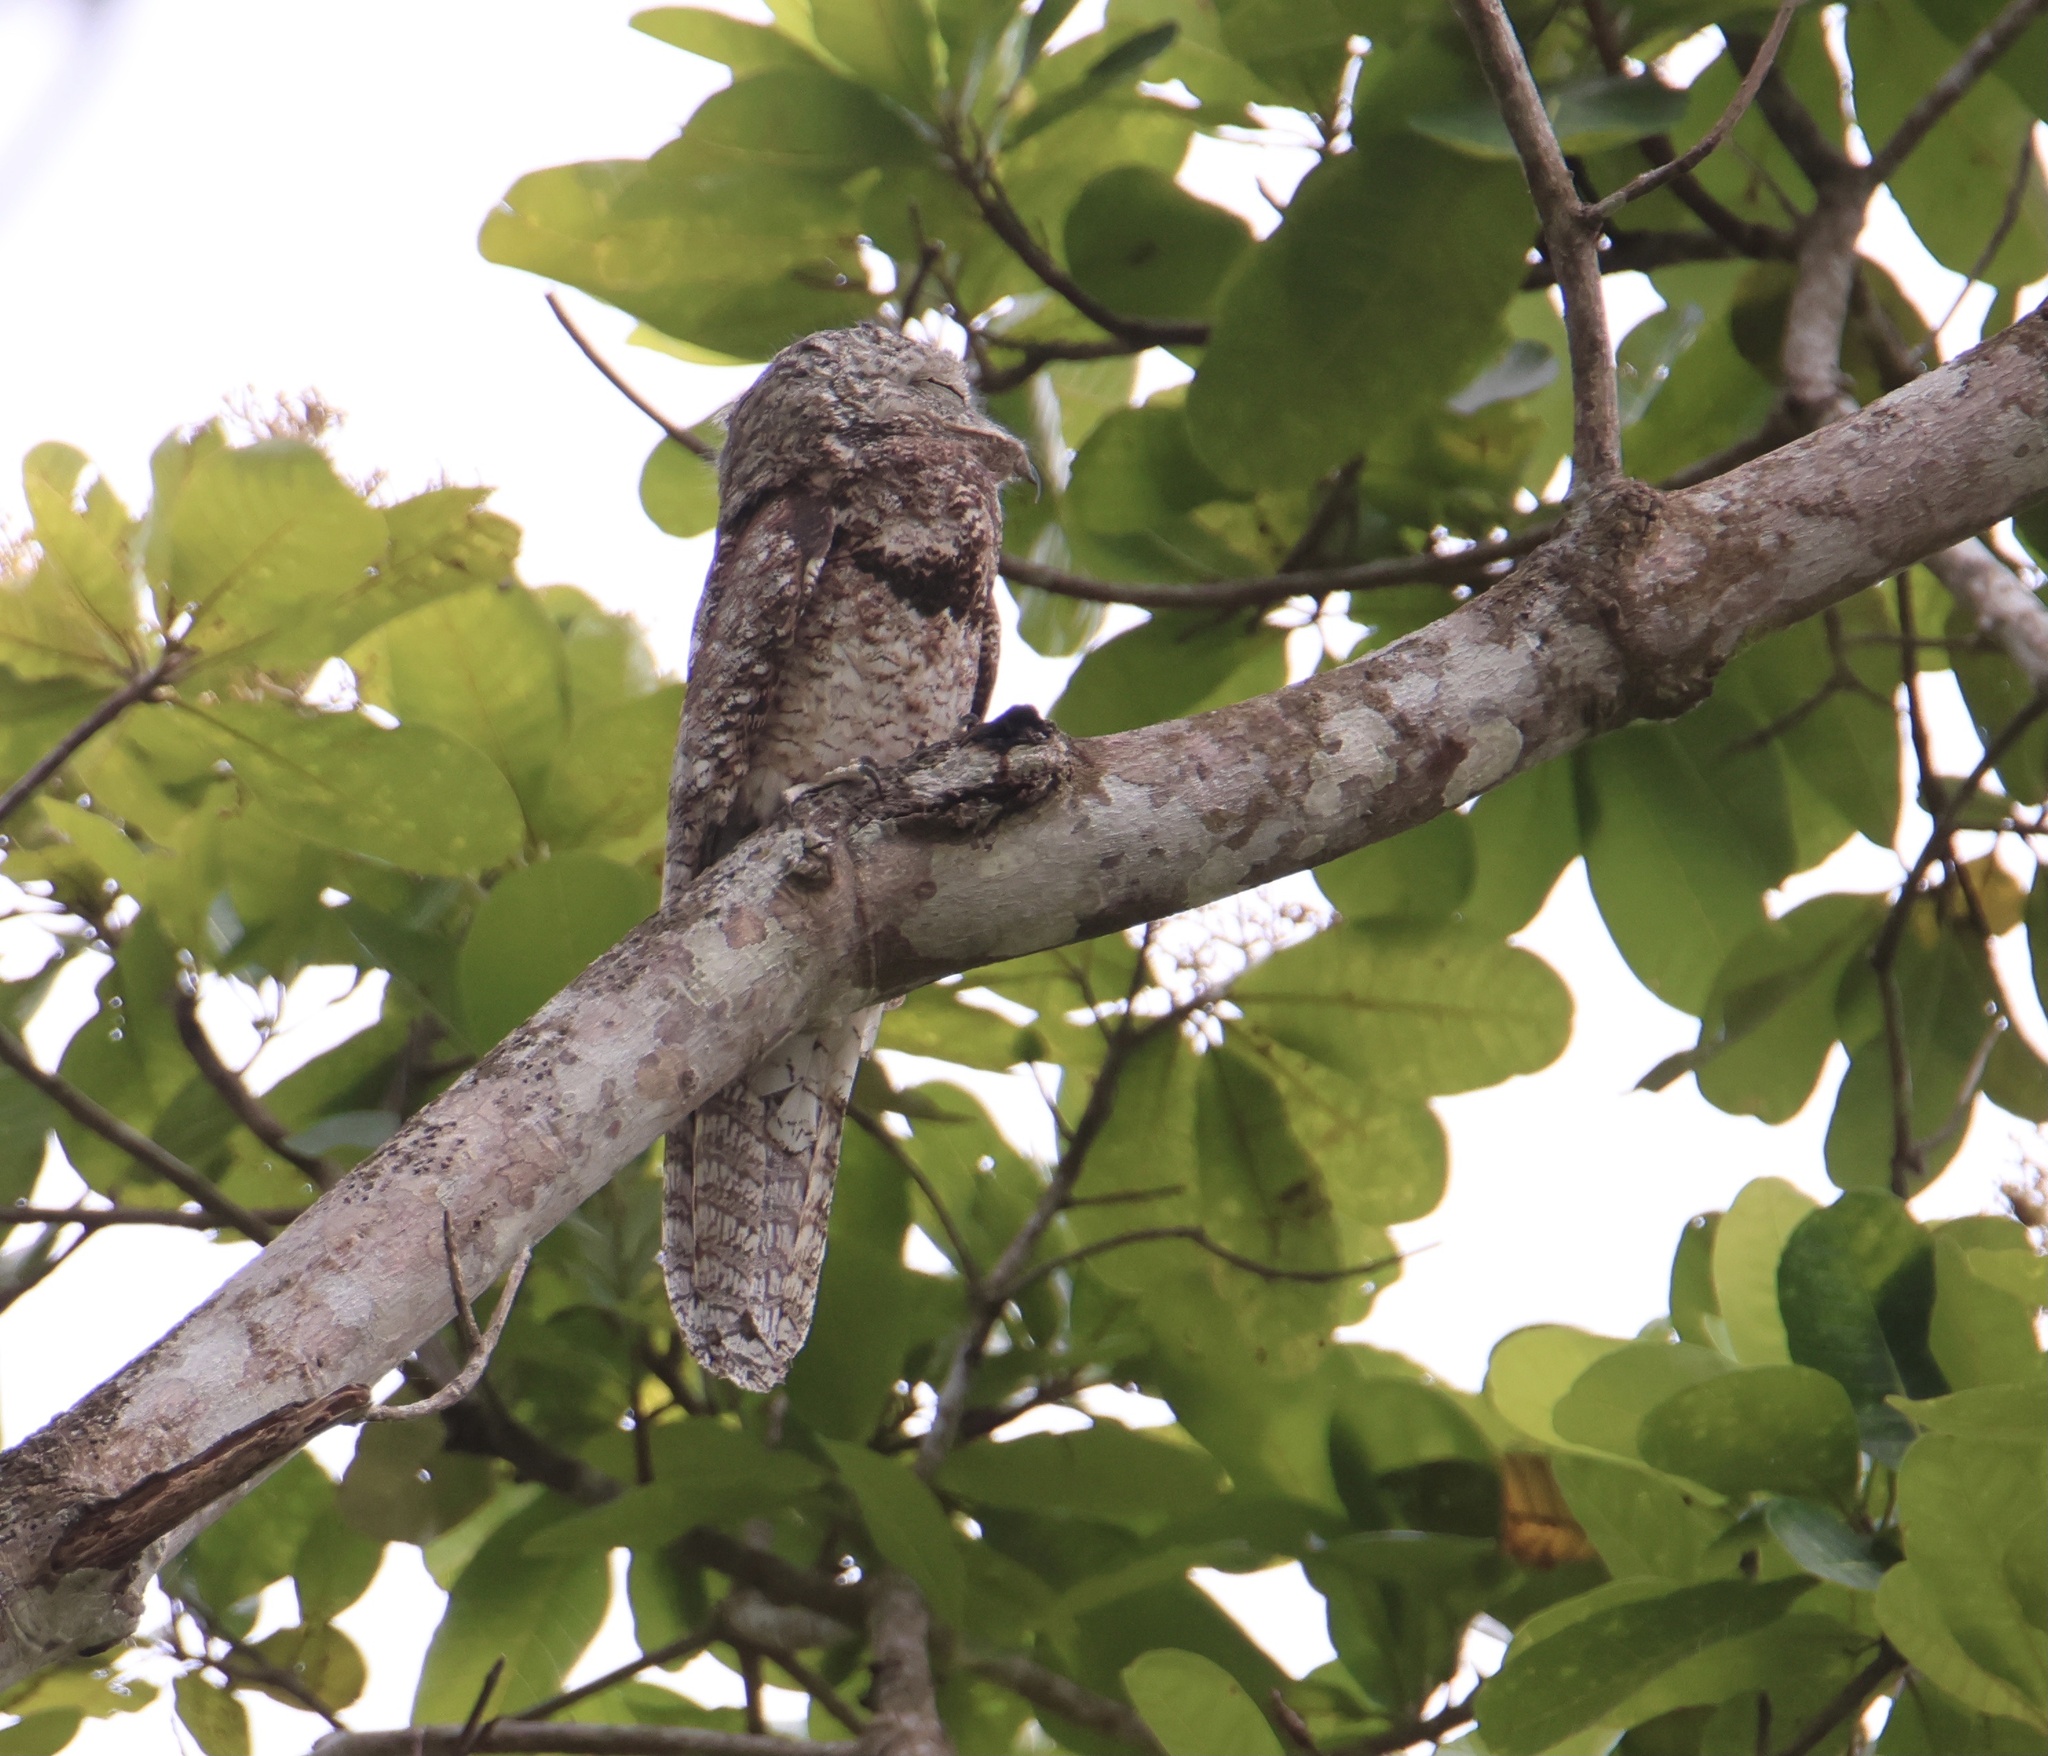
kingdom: Animalia
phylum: Chordata
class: Aves
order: Nyctibiiformes
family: Nyctibiidae
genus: Nyctibius
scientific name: Nyctibius grandis
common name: Great potoo
